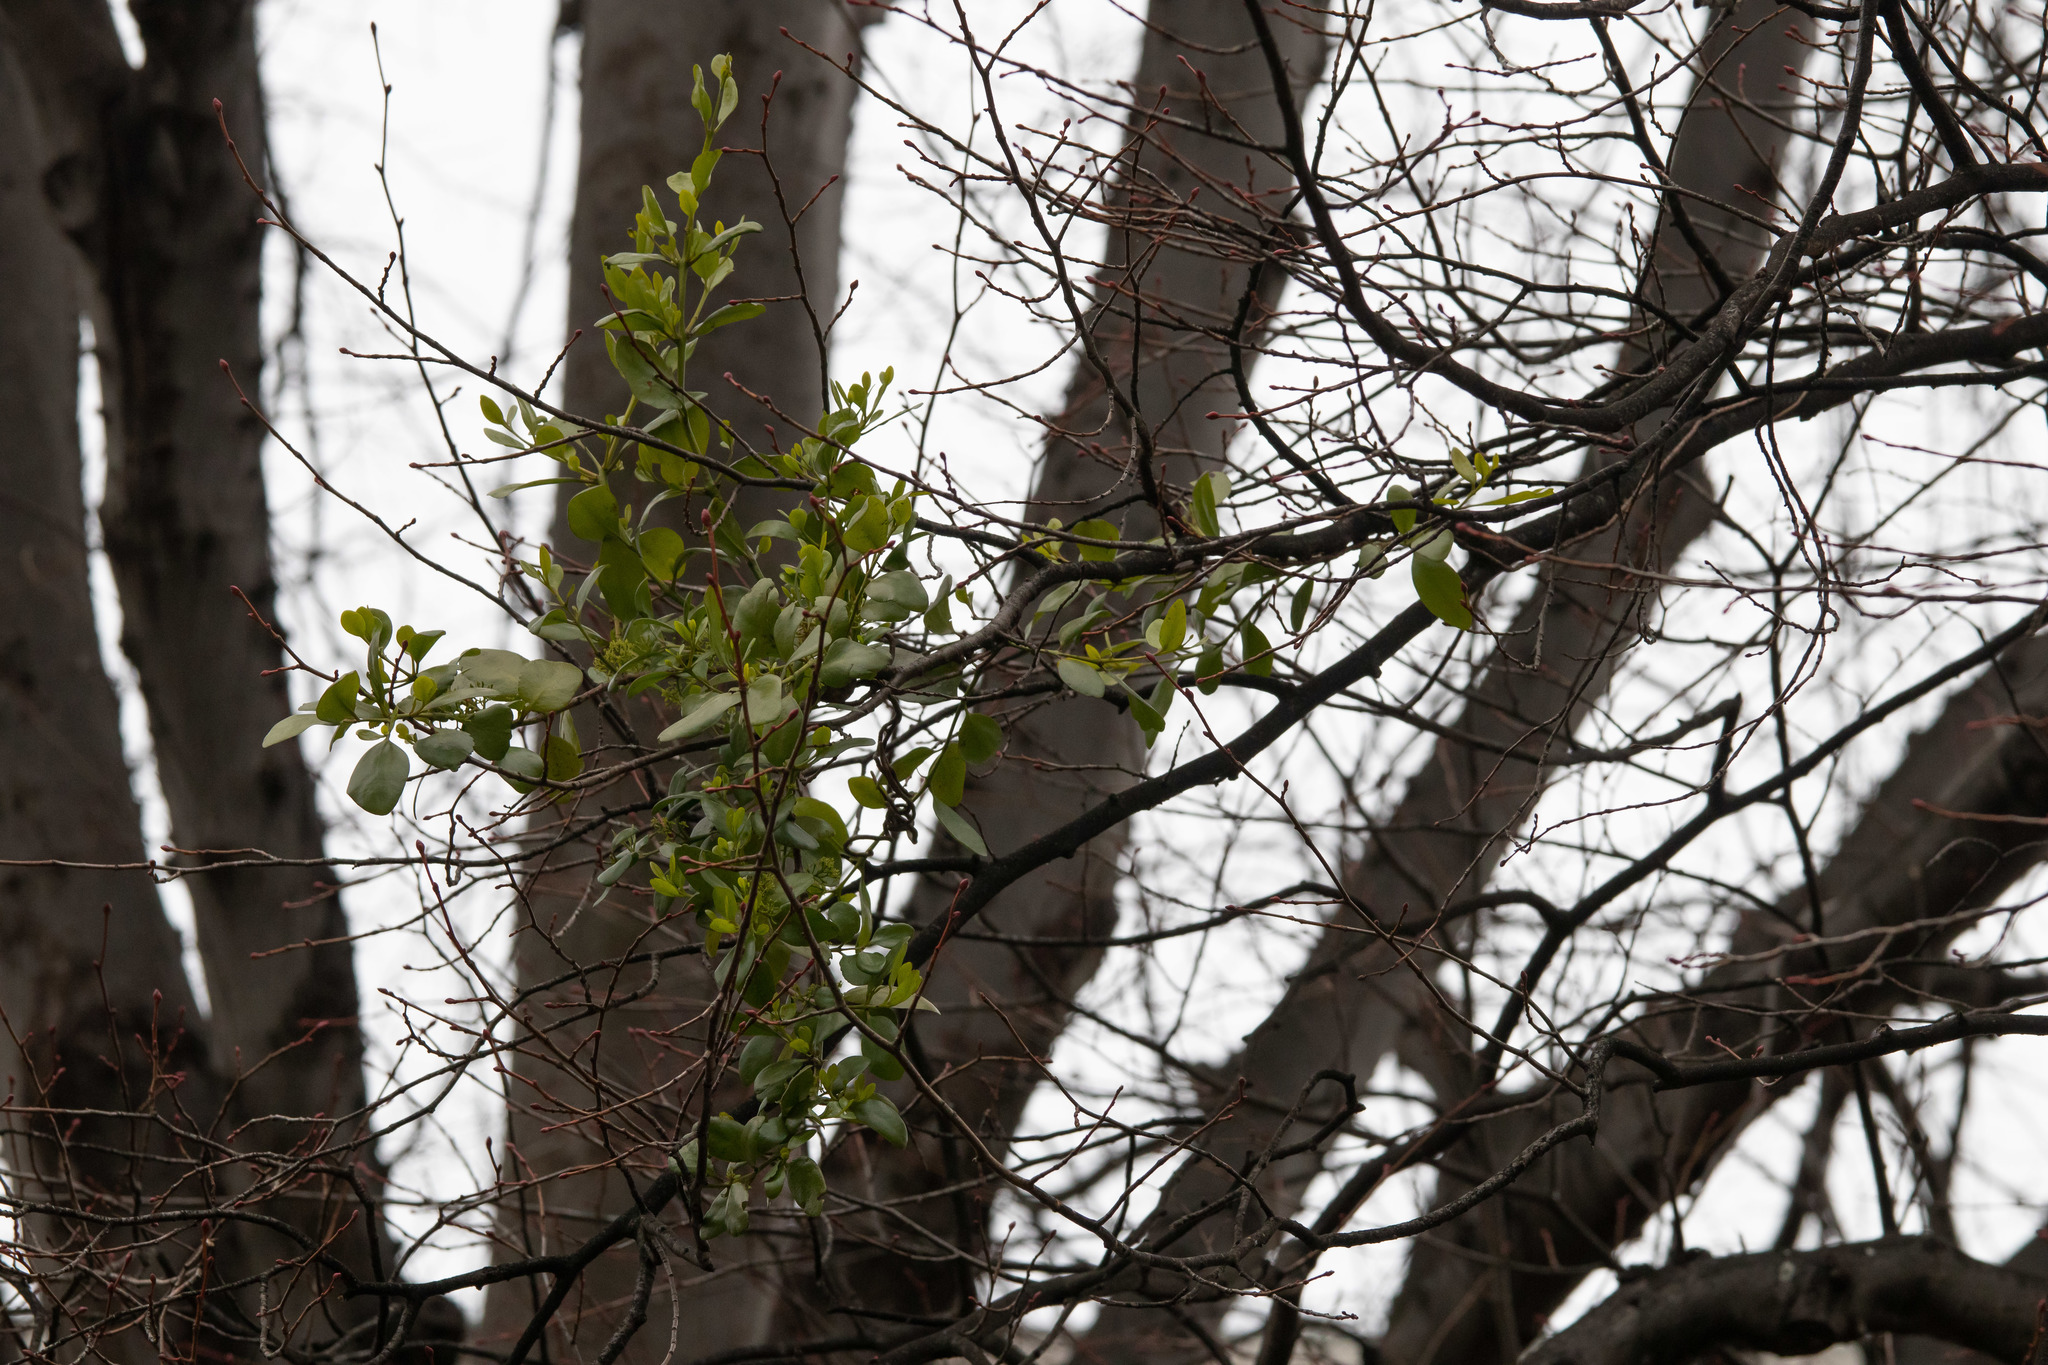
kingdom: Plantae
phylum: Tracheophyta
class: Magnoliopsida
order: Santalales
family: Loranthaceae
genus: Ileostylus
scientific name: Ileostylus micranthus
